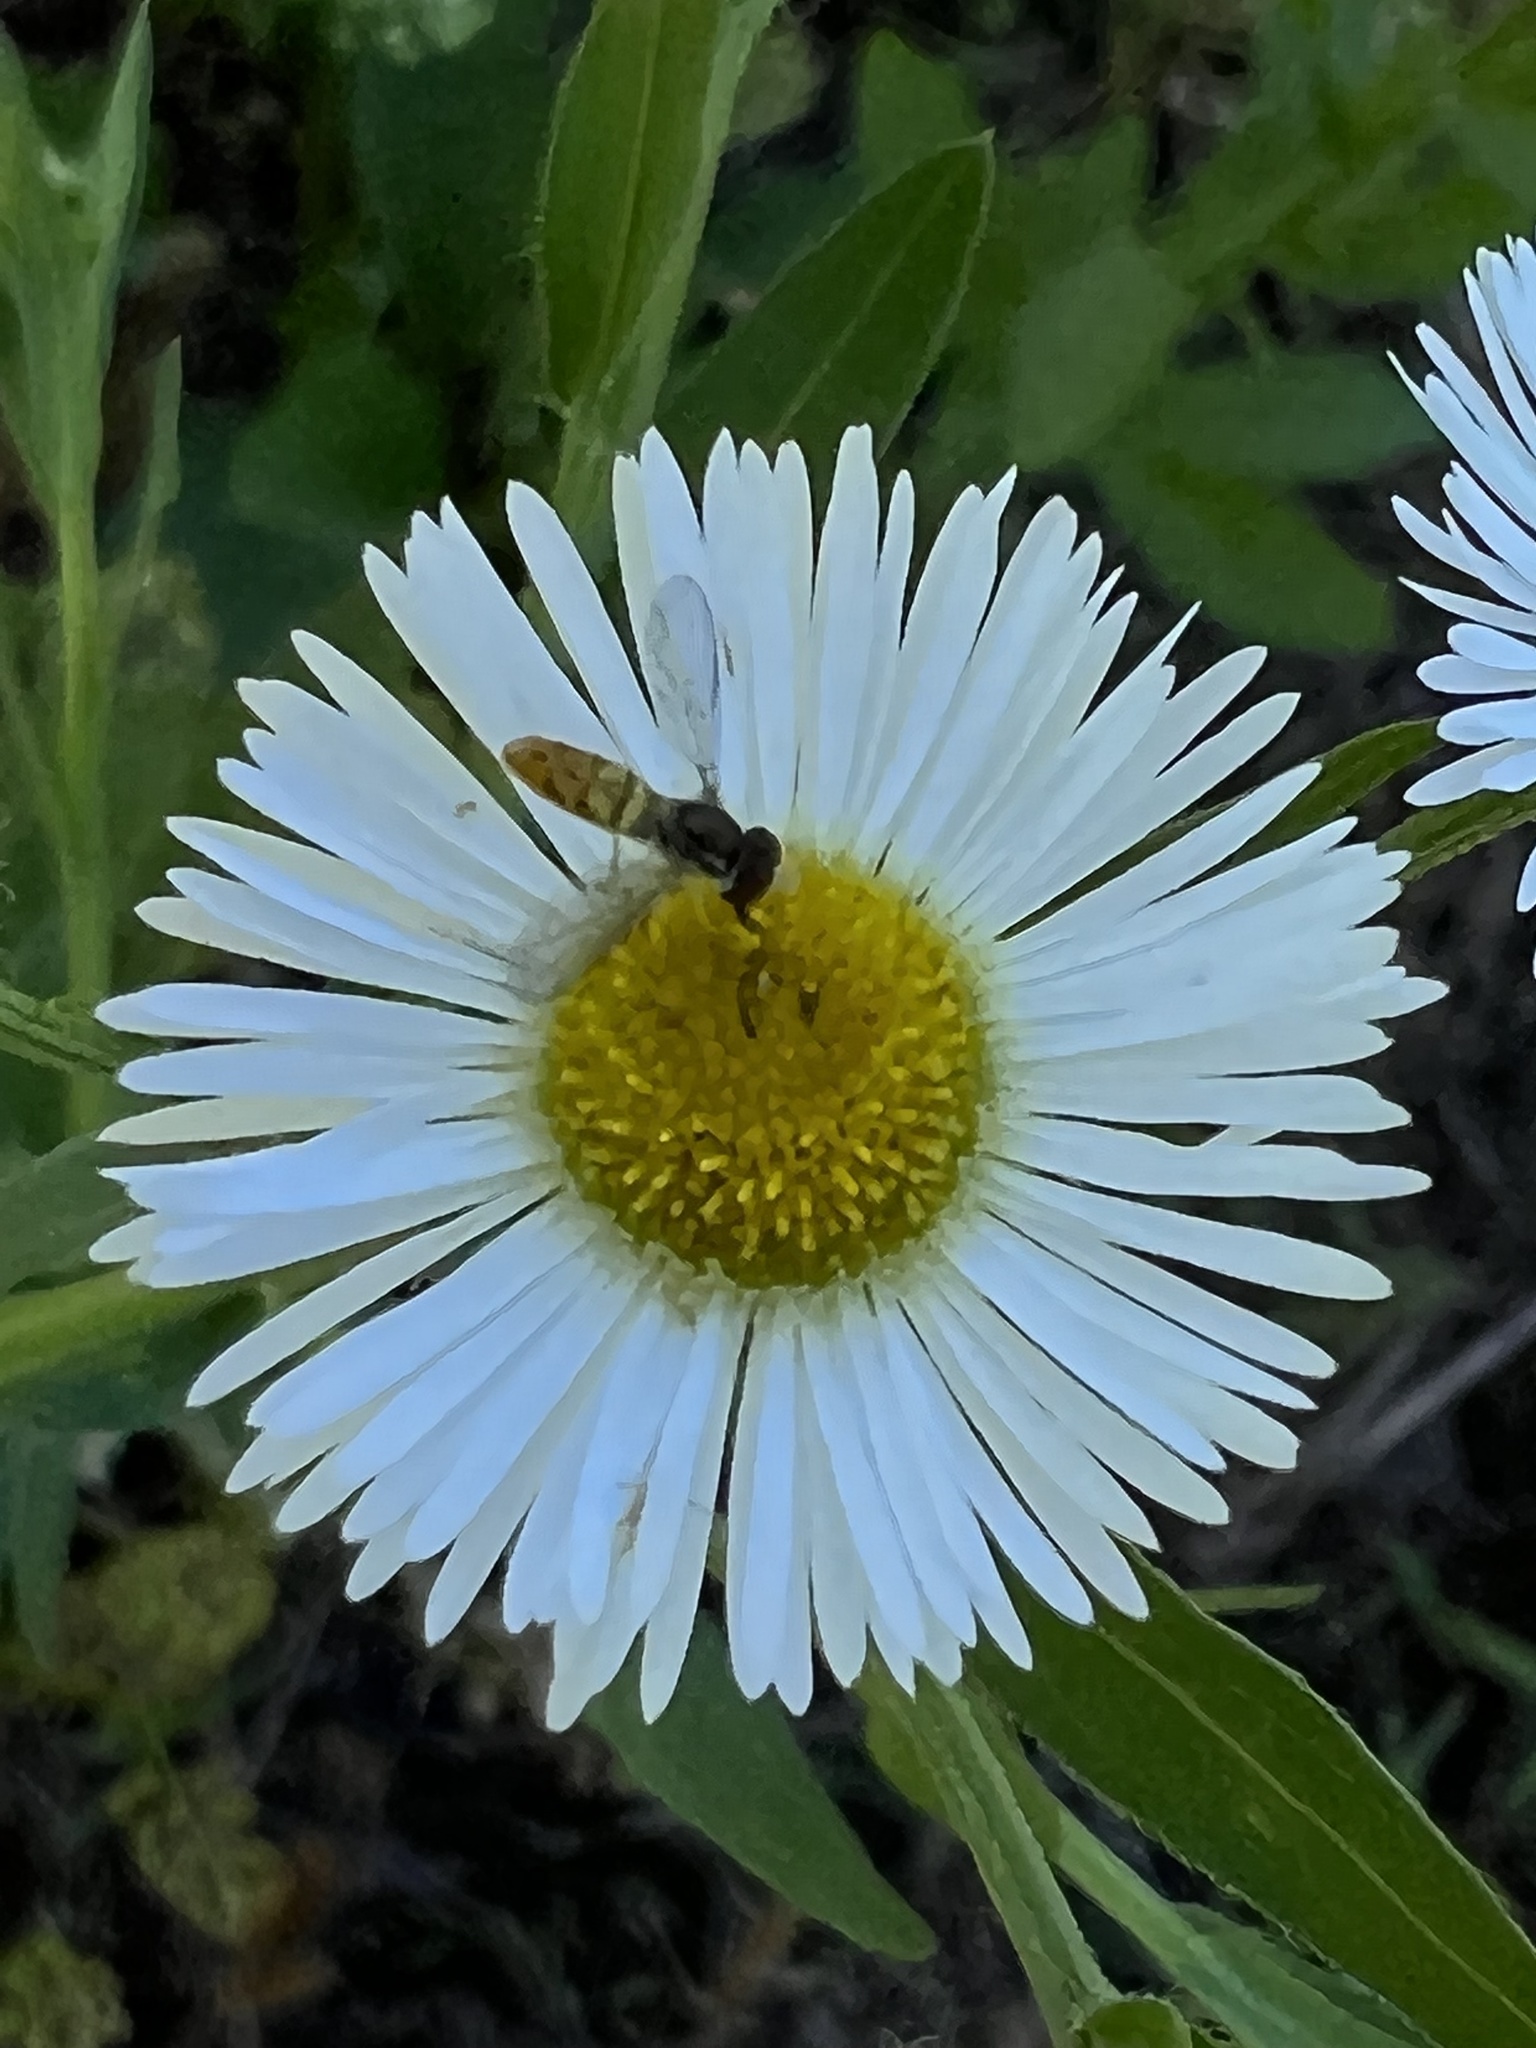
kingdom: Animalia
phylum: Arthropoda
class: Insecta
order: Diptera
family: Syrphidae
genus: Toxomerus
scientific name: Toxomerus marginatus
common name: Syrphid fly
